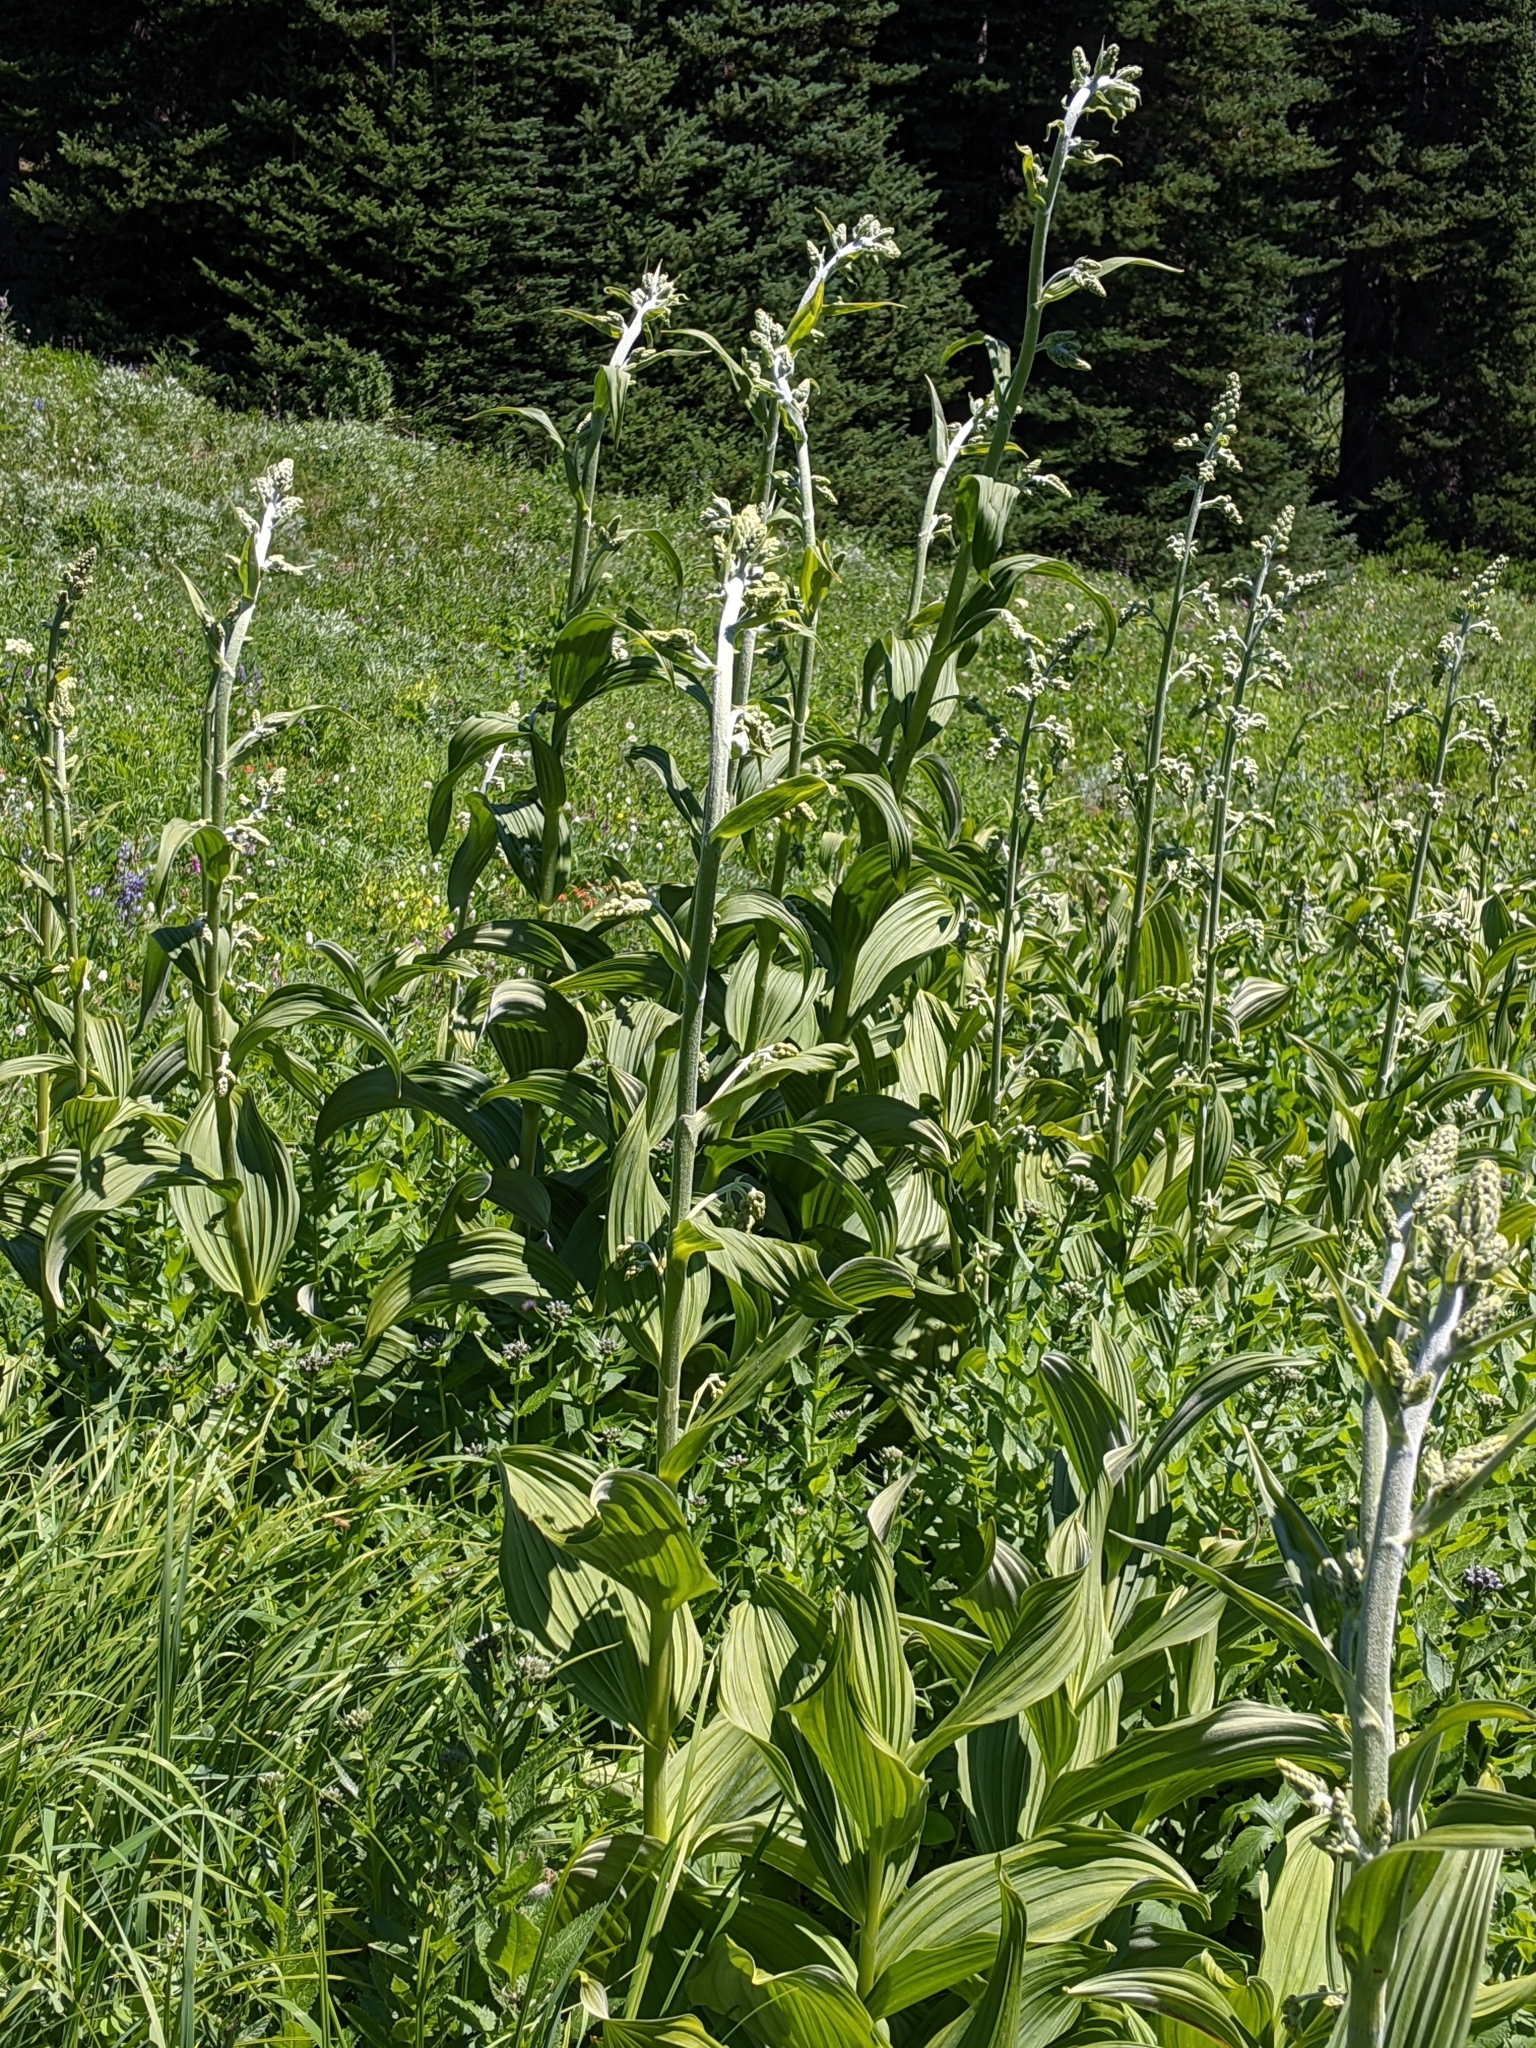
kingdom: Plantae
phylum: Tracheophyta
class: Liliopsida
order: Liliales
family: Melanthiaceae
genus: Veratrum
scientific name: Veratrum viride
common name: American false hellebore
